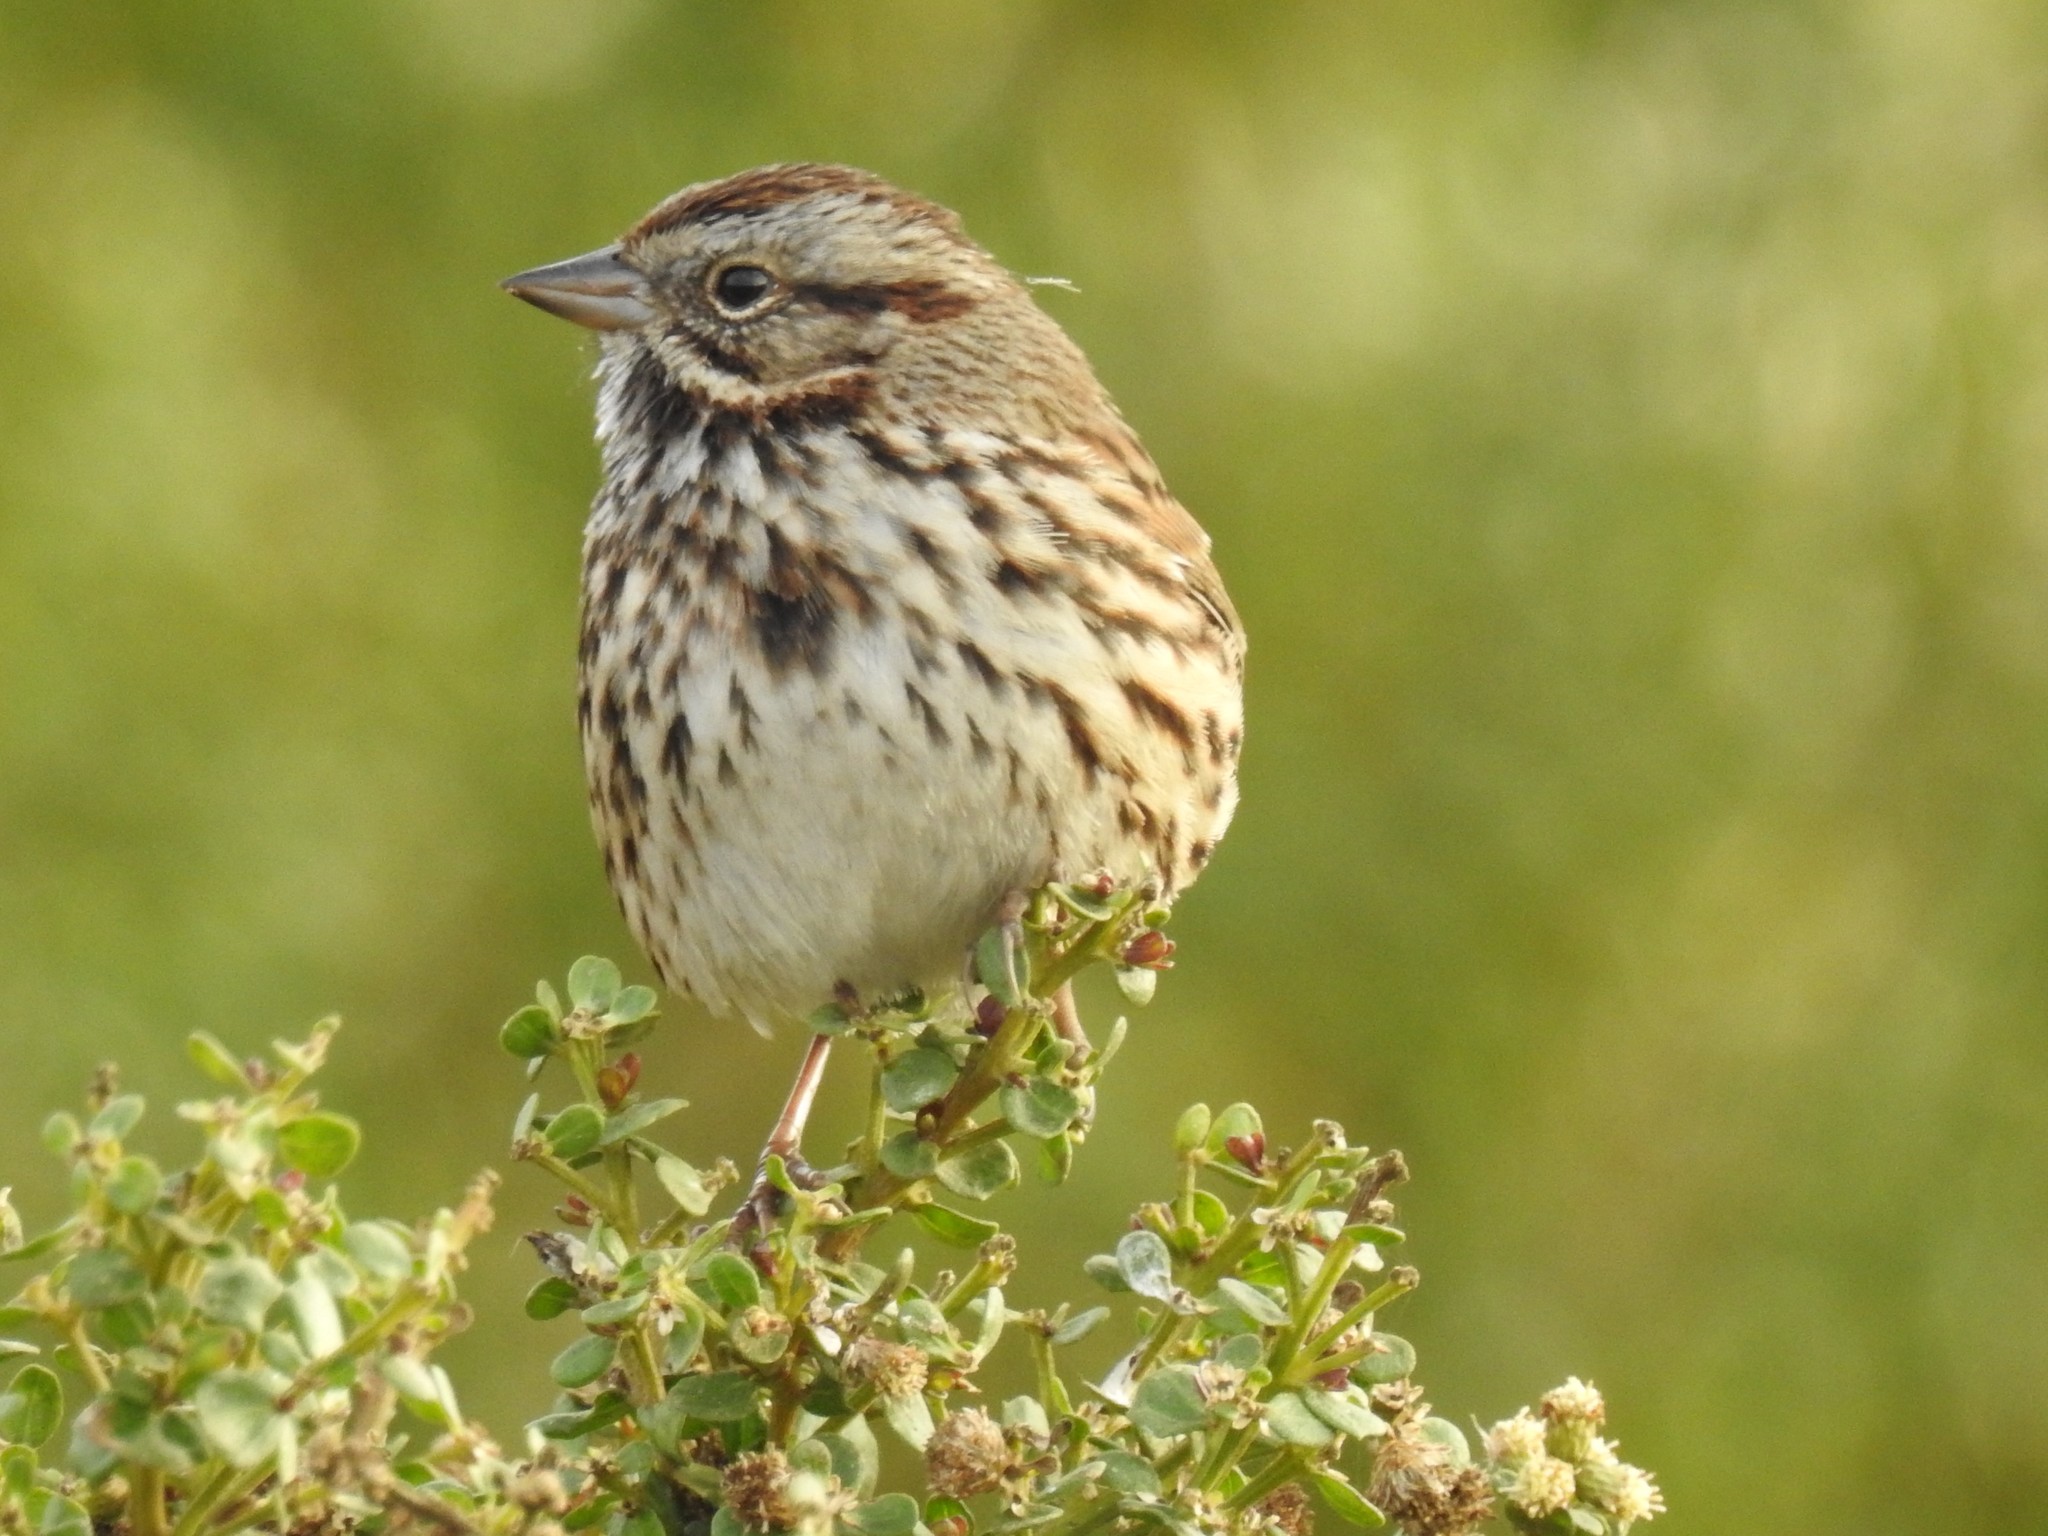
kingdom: Animalia
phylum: Chordata
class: Aves
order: Passeriformes
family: Passerellidae
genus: Melospiza
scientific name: Melospiza melodia
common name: Song sparrow
